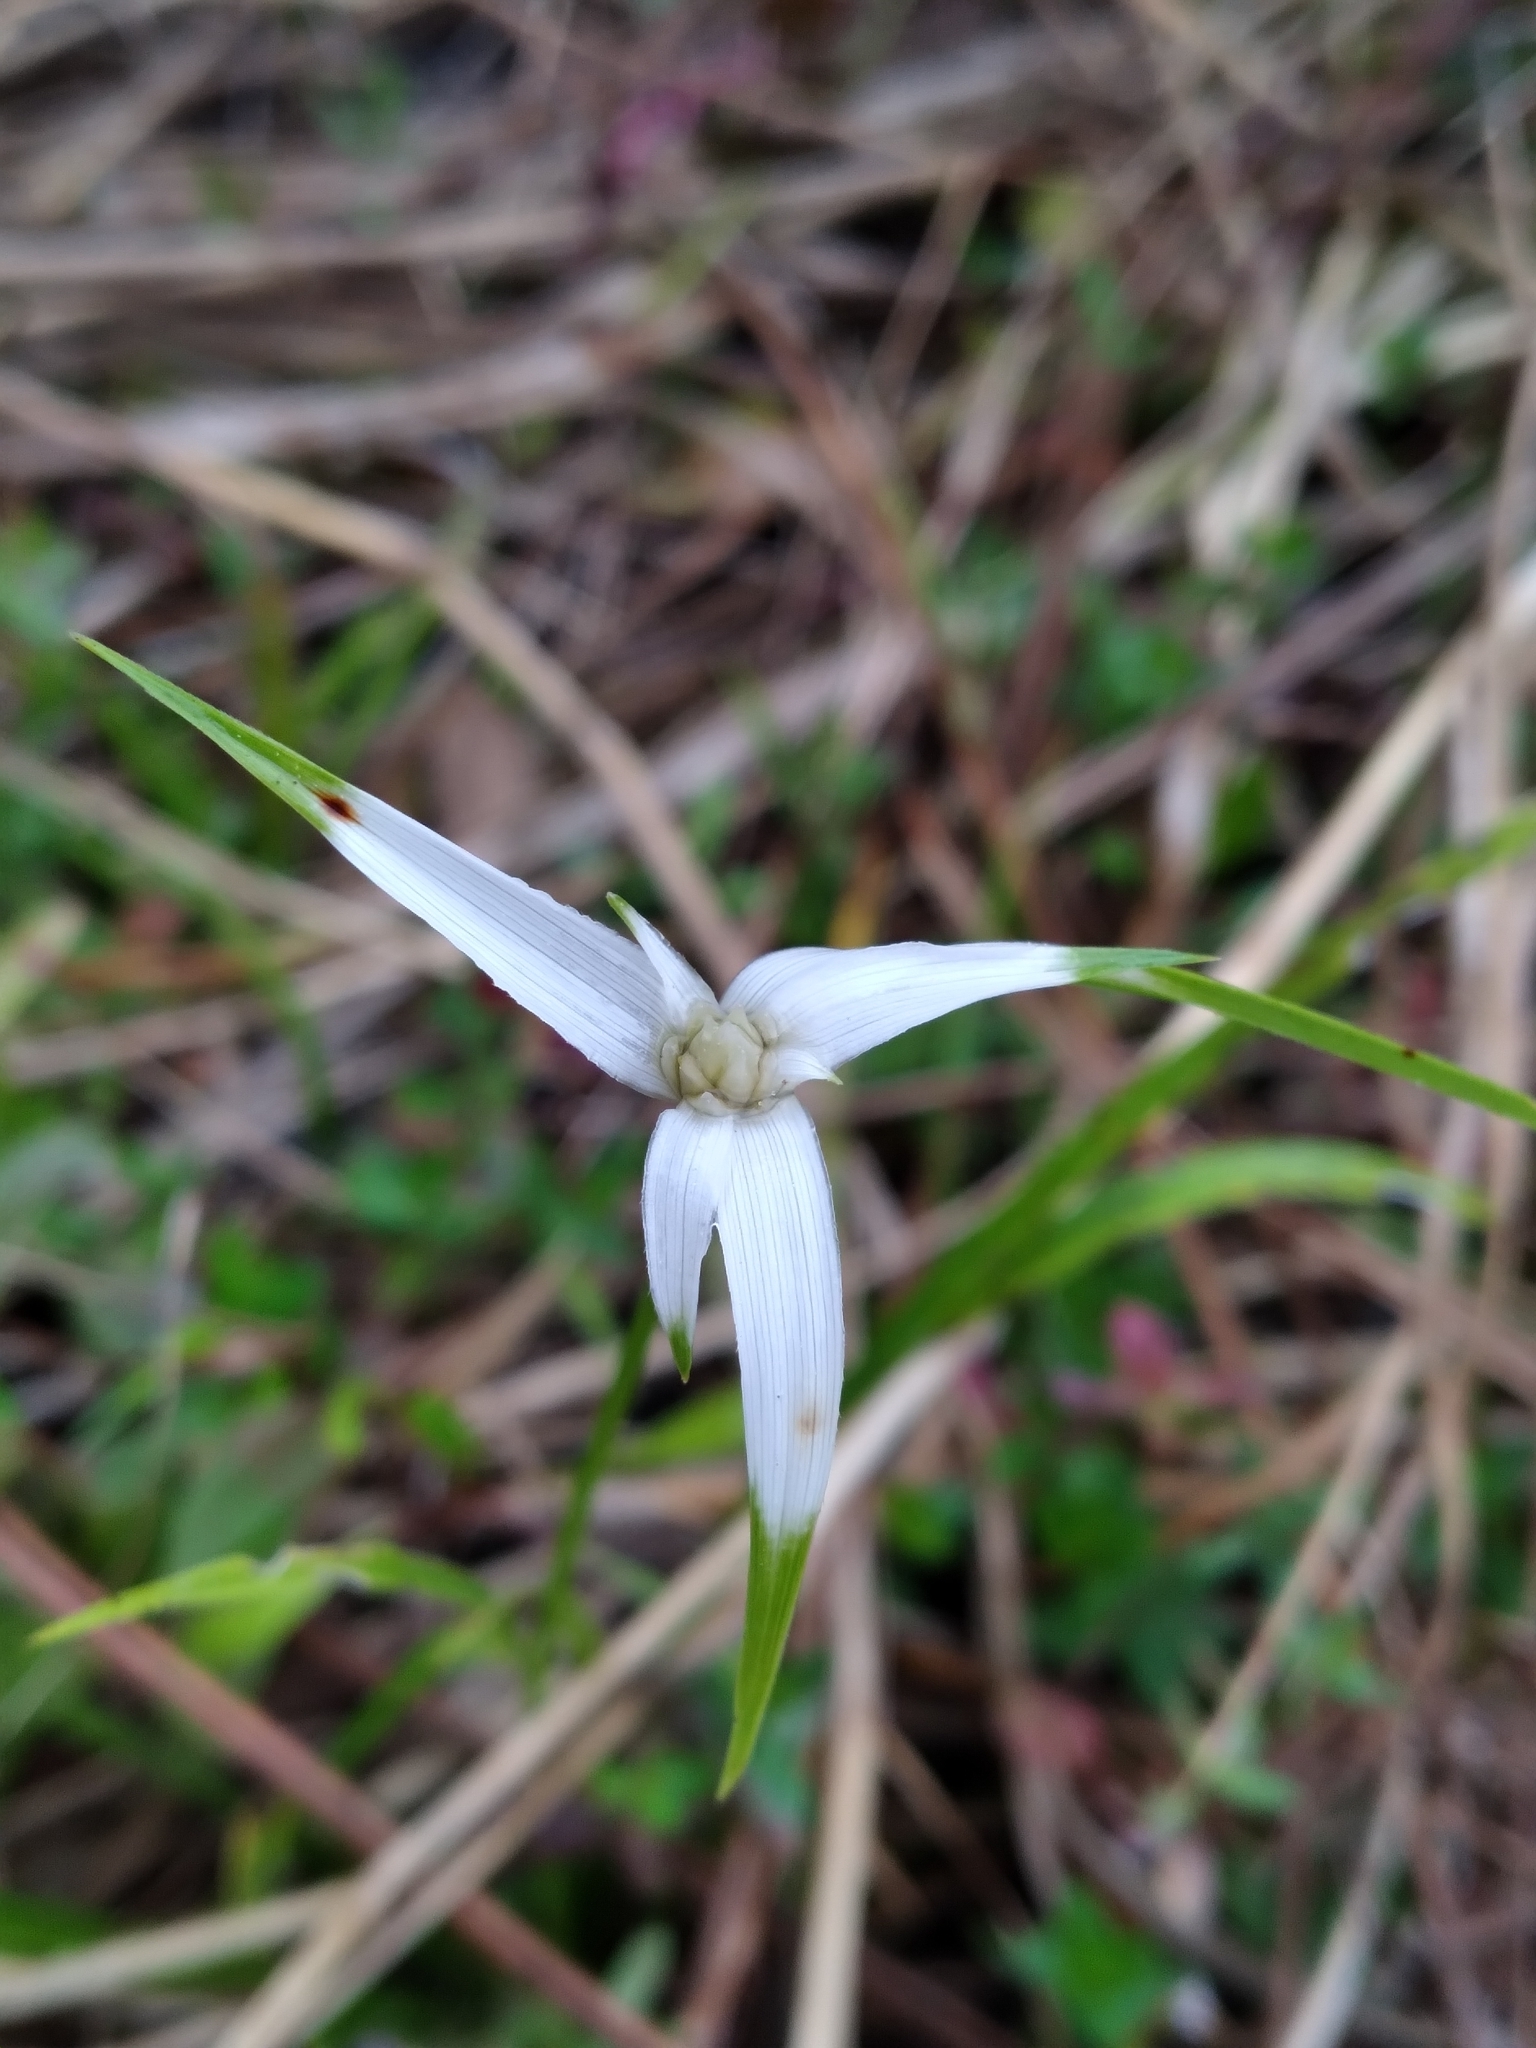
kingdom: Plantae
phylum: Tracheophyta
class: Liliopsida
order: Poales
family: Cyperaceae
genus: Rhynchospora
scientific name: Rhynchospora colorata
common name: Star sedge
